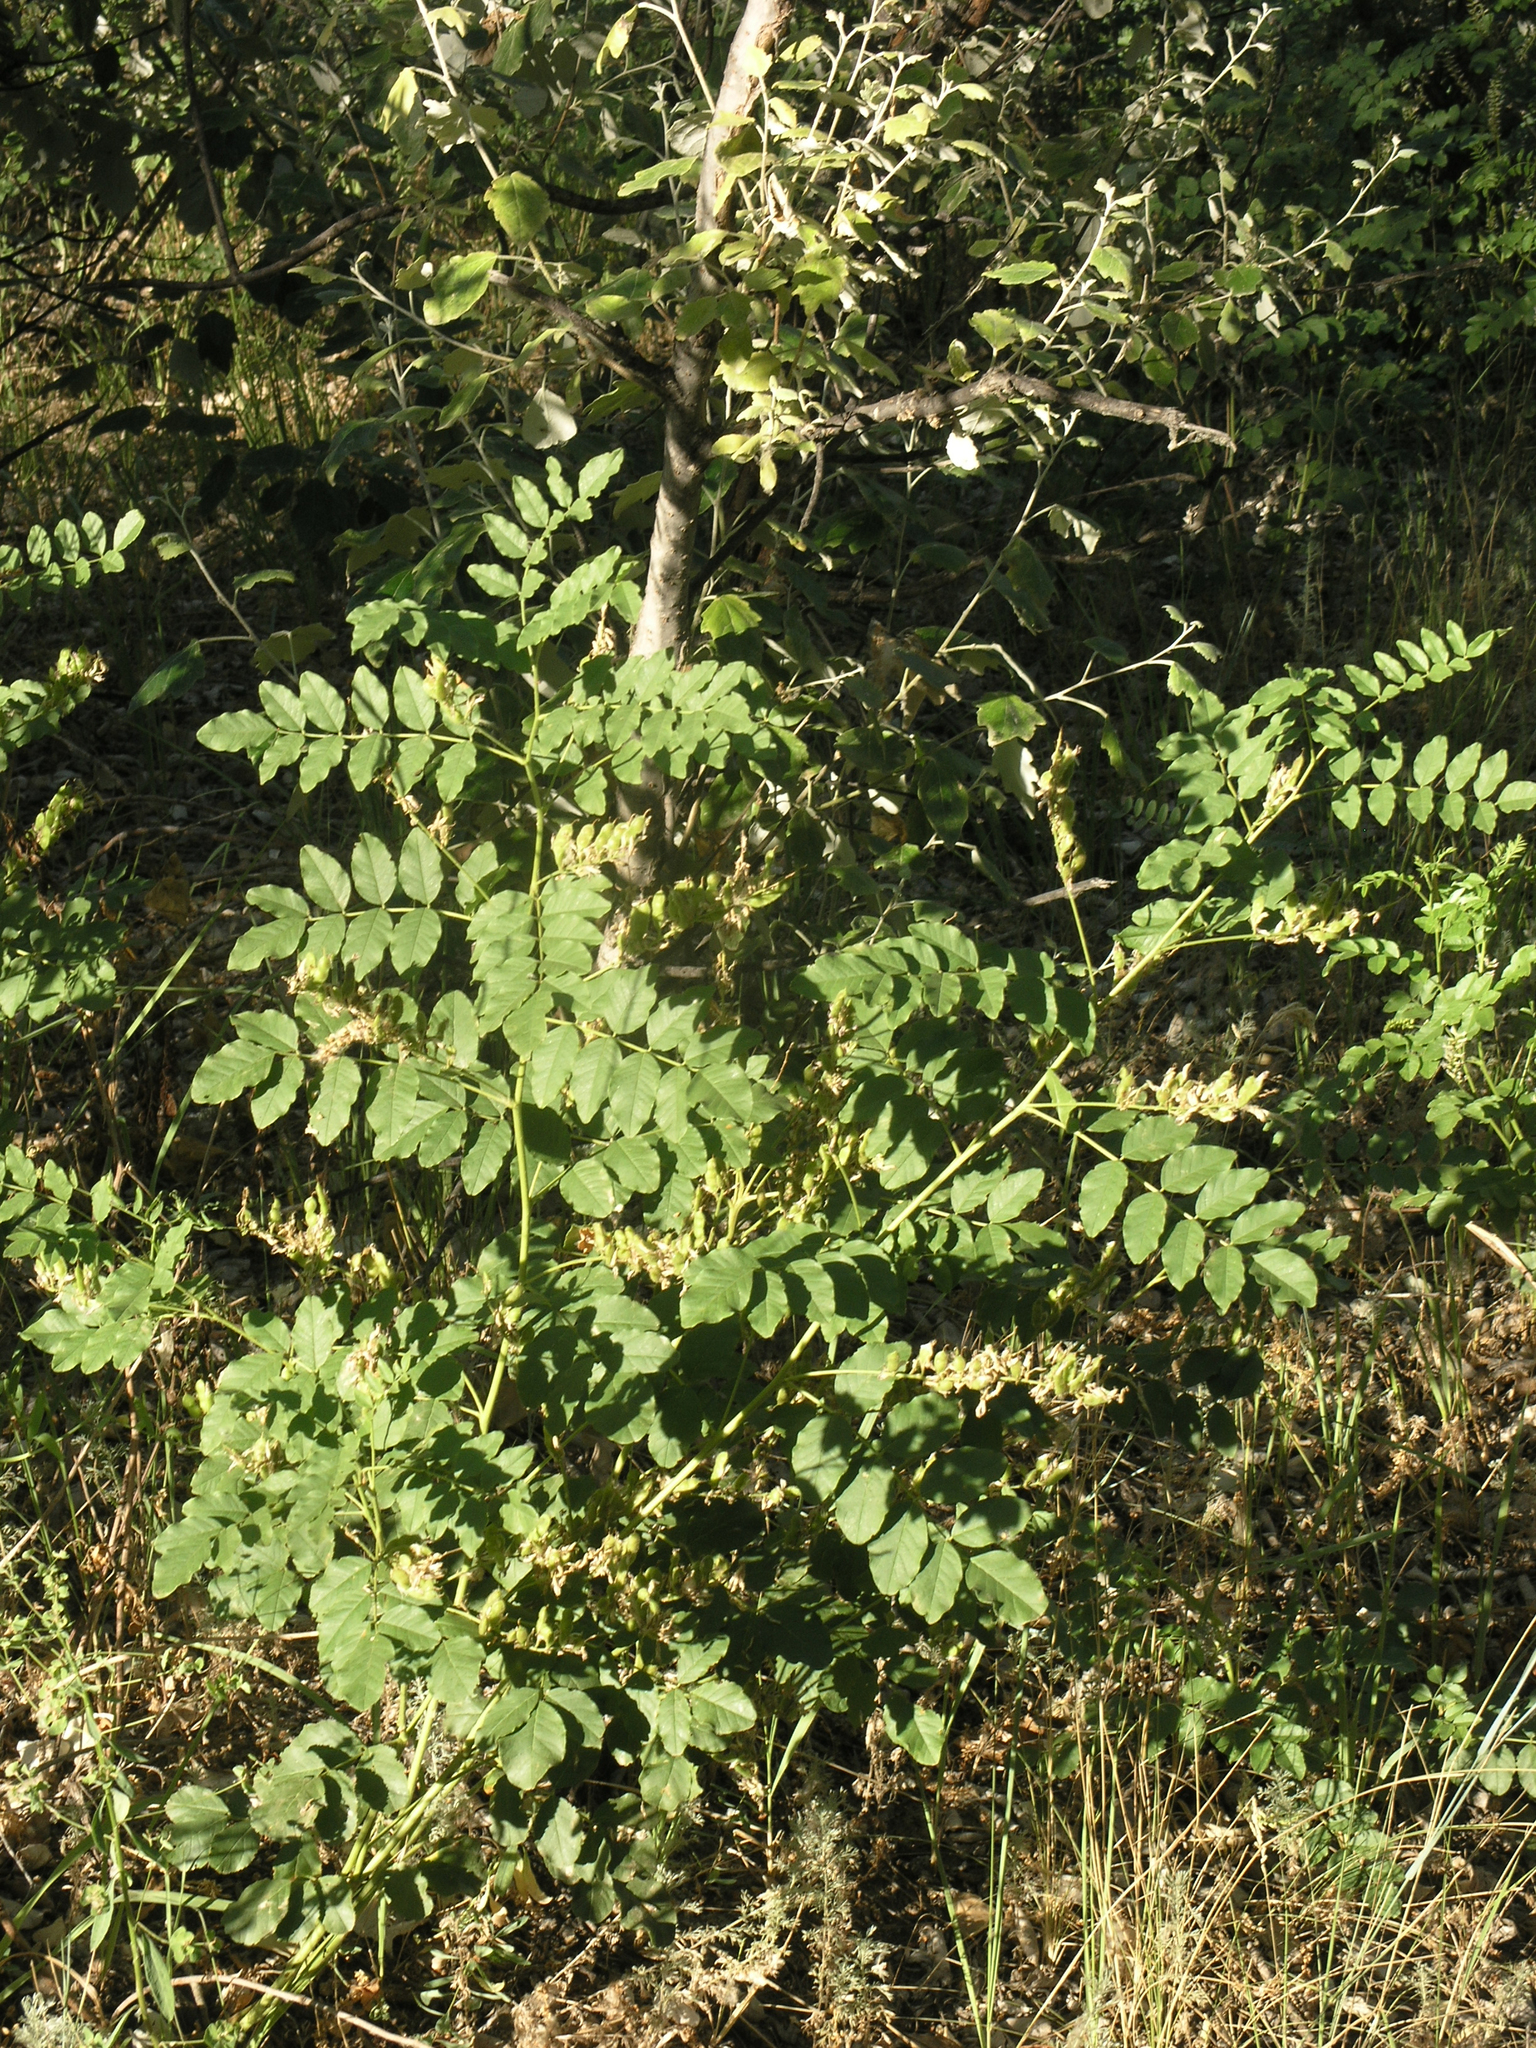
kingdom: Plantae
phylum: Tracheophyta
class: Magnoliopsida
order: Fabales
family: Fabaceae
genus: Glycyrrhiza
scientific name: Glycyrrhiza uralensis
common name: Chinese licorice
